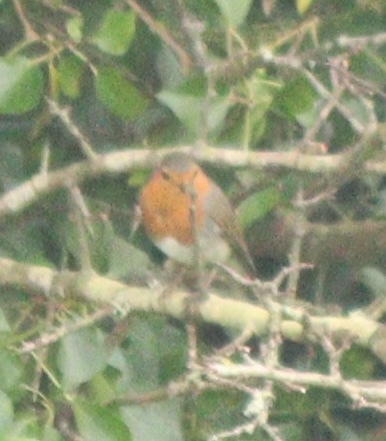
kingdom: Animalia
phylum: Chordata
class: Aves
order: Passeriformes
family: Muscicapidae
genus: Erithacus
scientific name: Erithacus rubecula
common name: European robin
